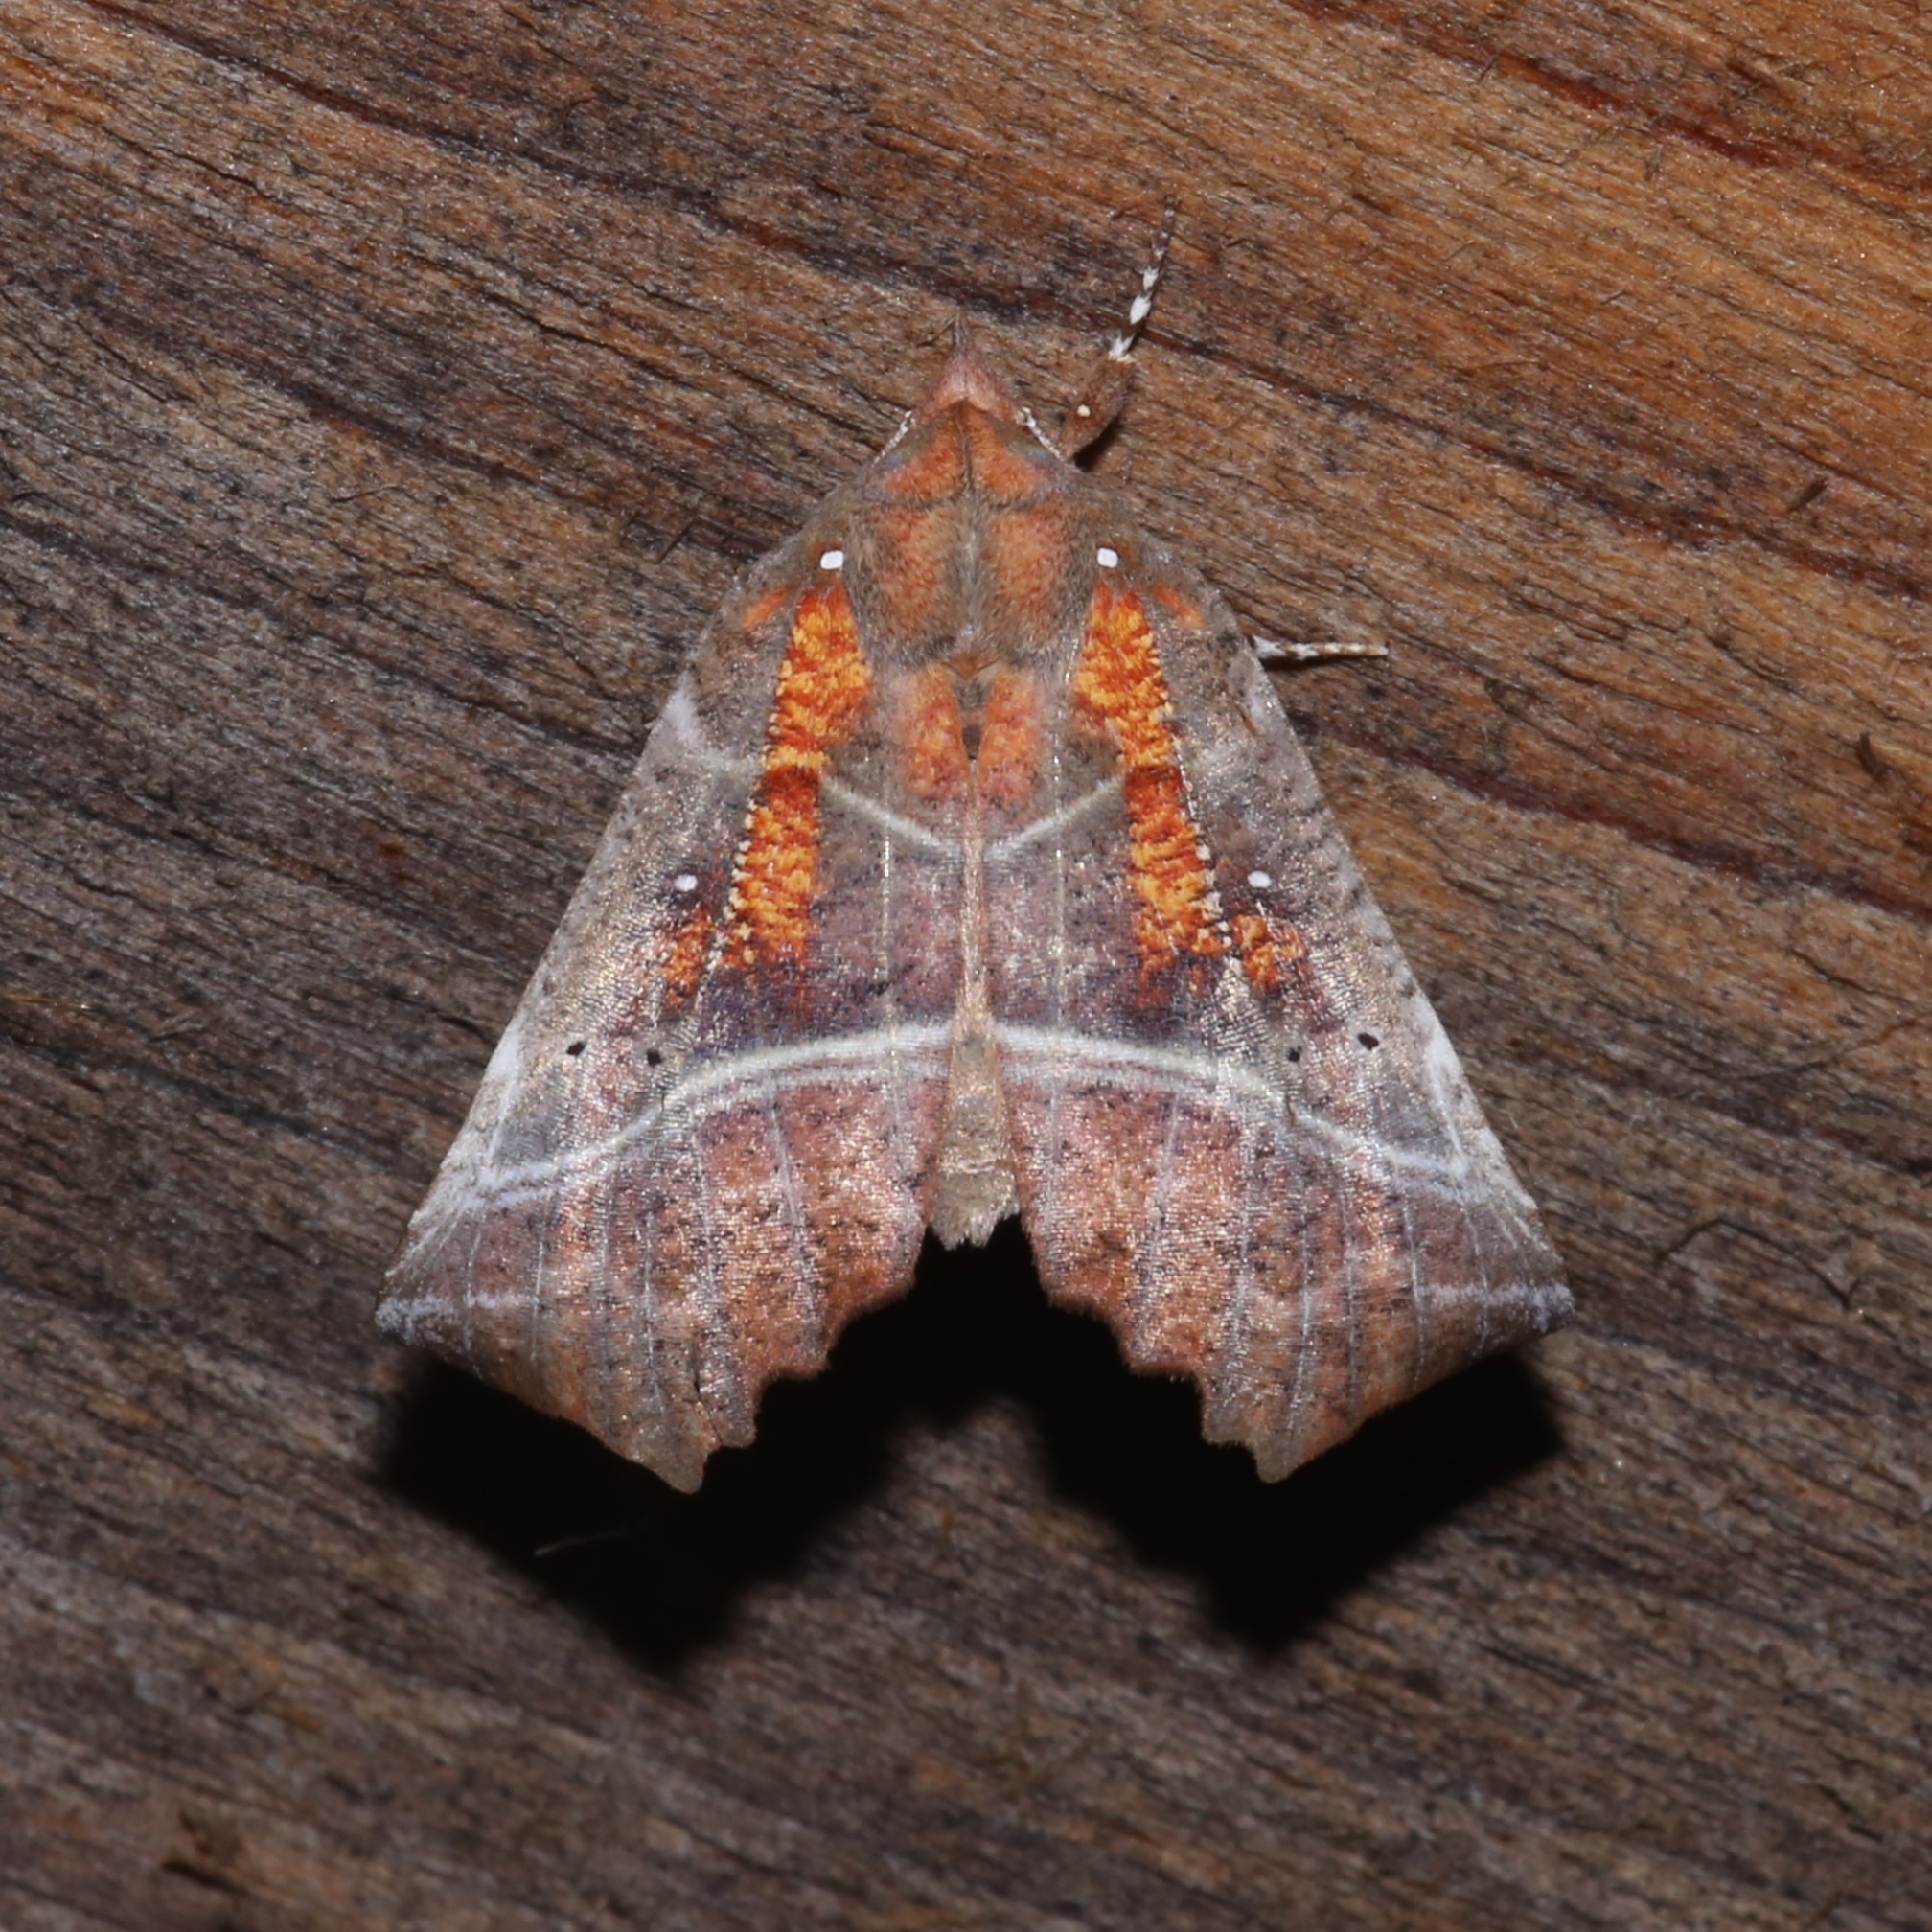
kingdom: Animalia
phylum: Arthropoda
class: Insecta
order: Lepidoptera
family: Erebidae
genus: Scoliopteryx
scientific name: Scoliopteryx libatrix
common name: Herald
